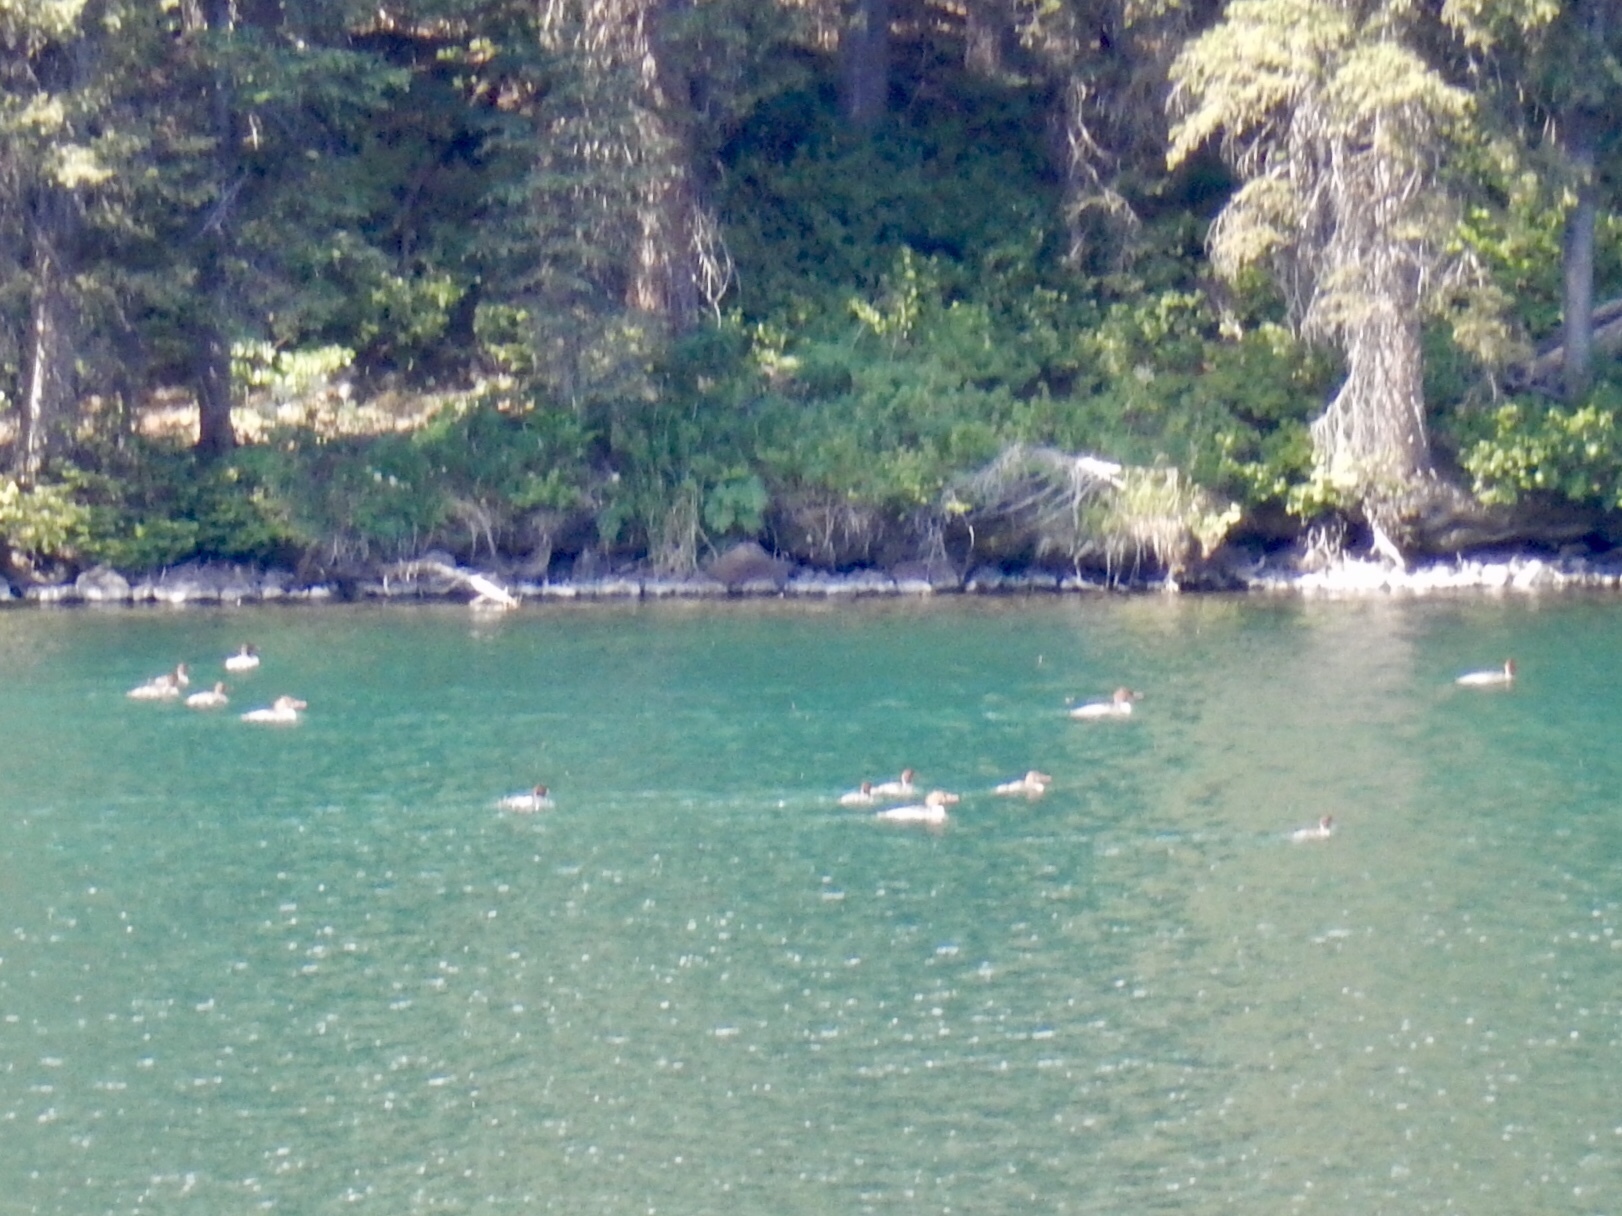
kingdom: Animalia
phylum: Chordata
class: Aves
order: Anseriformes
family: Anatidae
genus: Mergus
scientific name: Mergus merganser
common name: Common merganser
